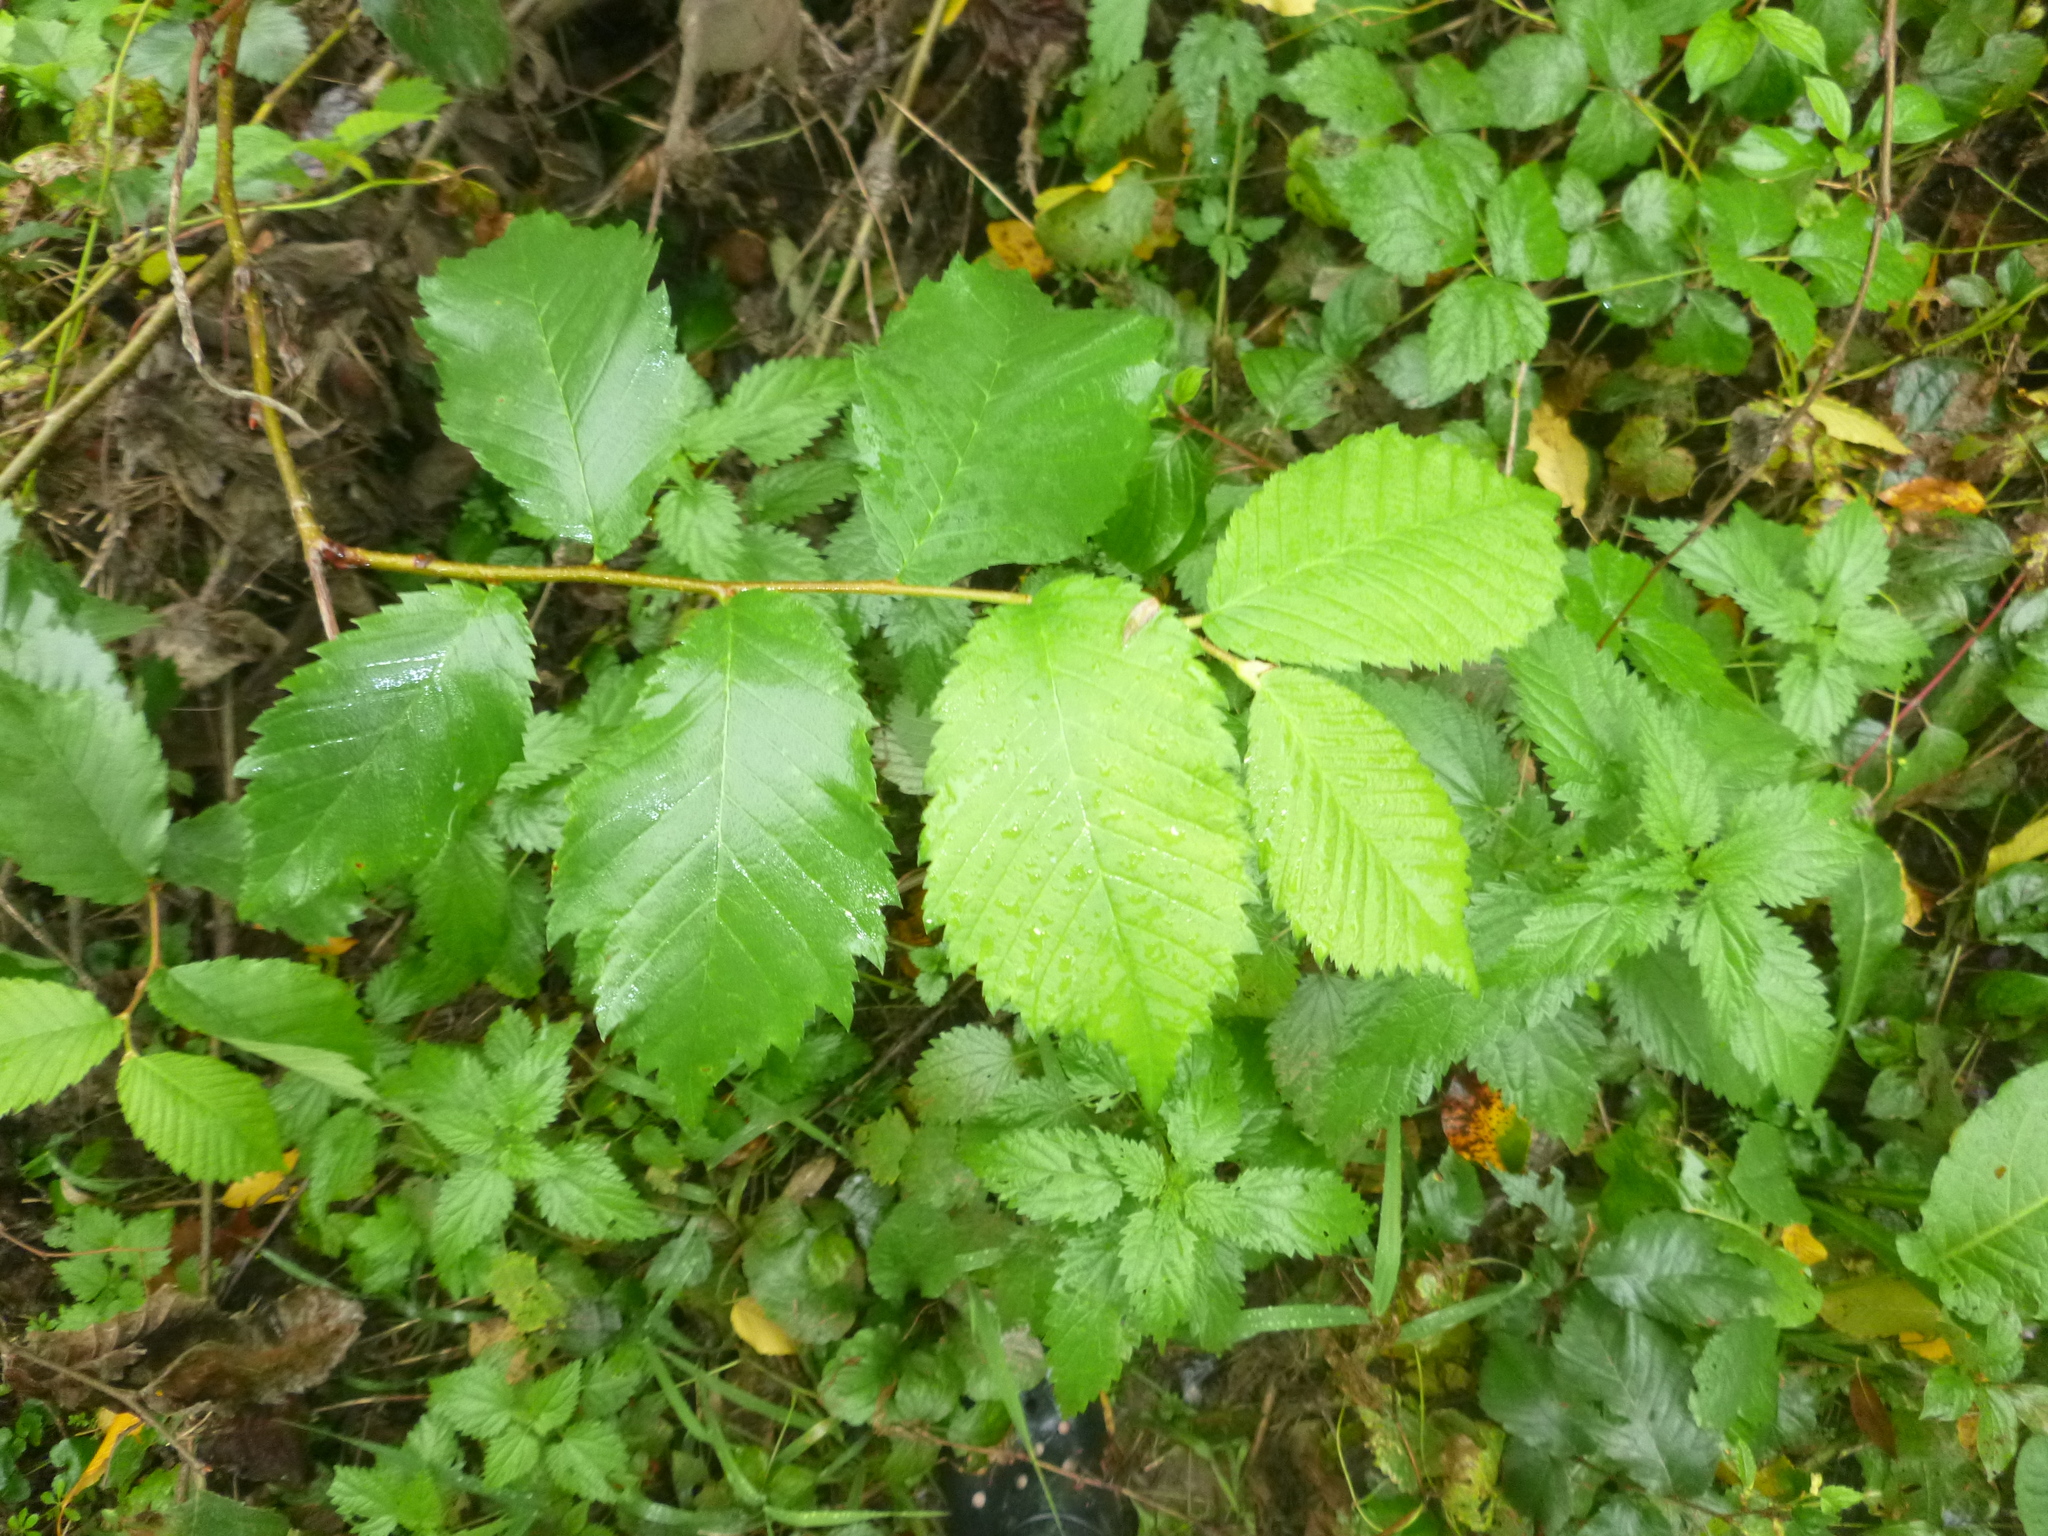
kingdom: Plantae
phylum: Tracheophyta
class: Magnoliopsida
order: Rosales
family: Ulmaceae
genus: Ulmus
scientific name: Ulmus laevis
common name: European white-elm
